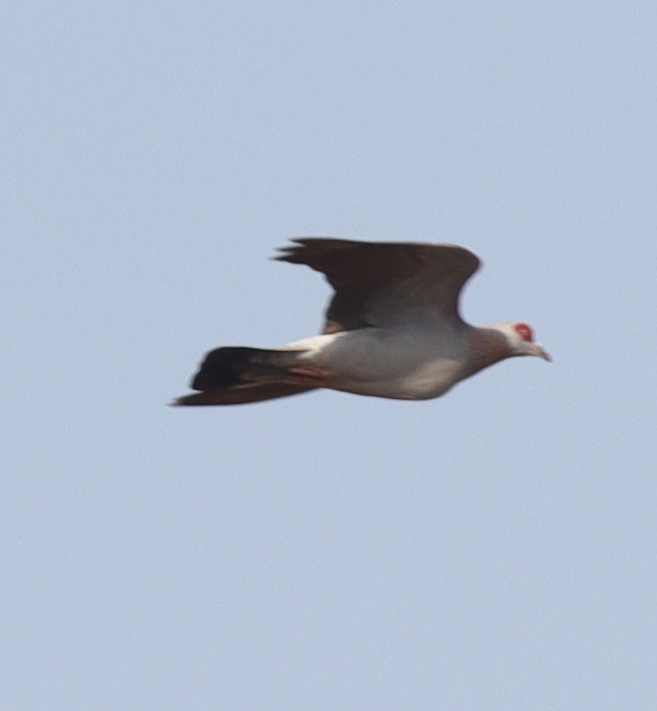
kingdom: Animalia
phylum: Chordata
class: Aves
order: Columbiformes
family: Columbidae
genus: Columba
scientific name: Columba guinea
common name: Speckled pigeon
